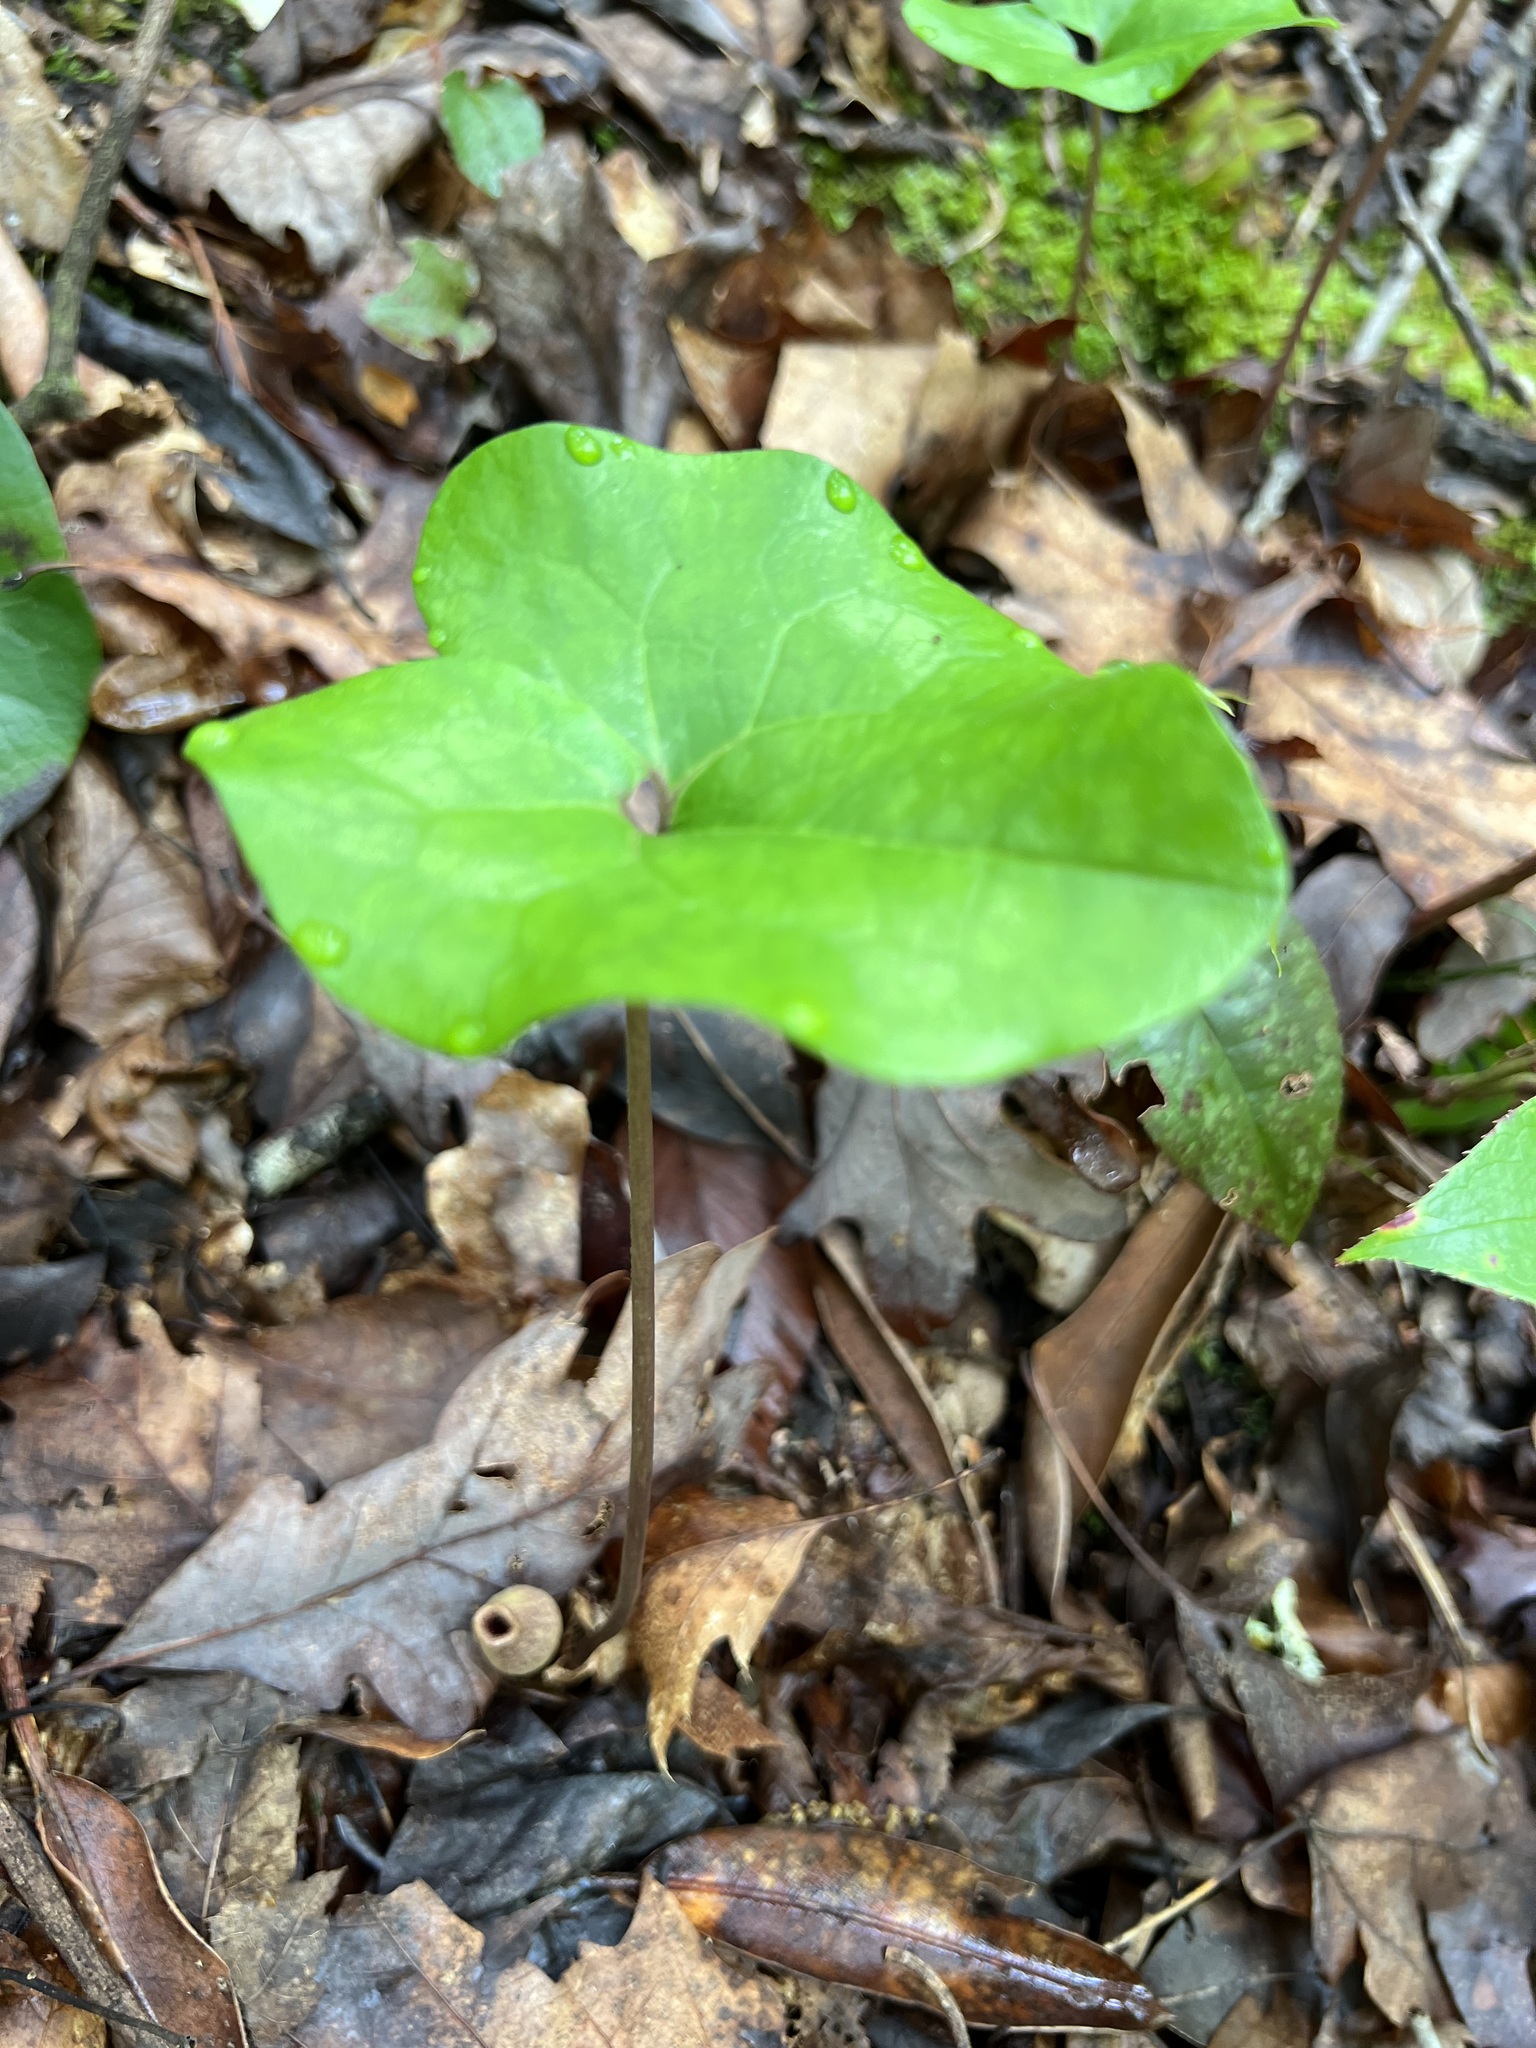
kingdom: Plantae
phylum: Tracheophyta
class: Magnoliopsida
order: Piperales
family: Aristolochiaceae
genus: Hexastylis
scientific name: Hexastylis arifolia
